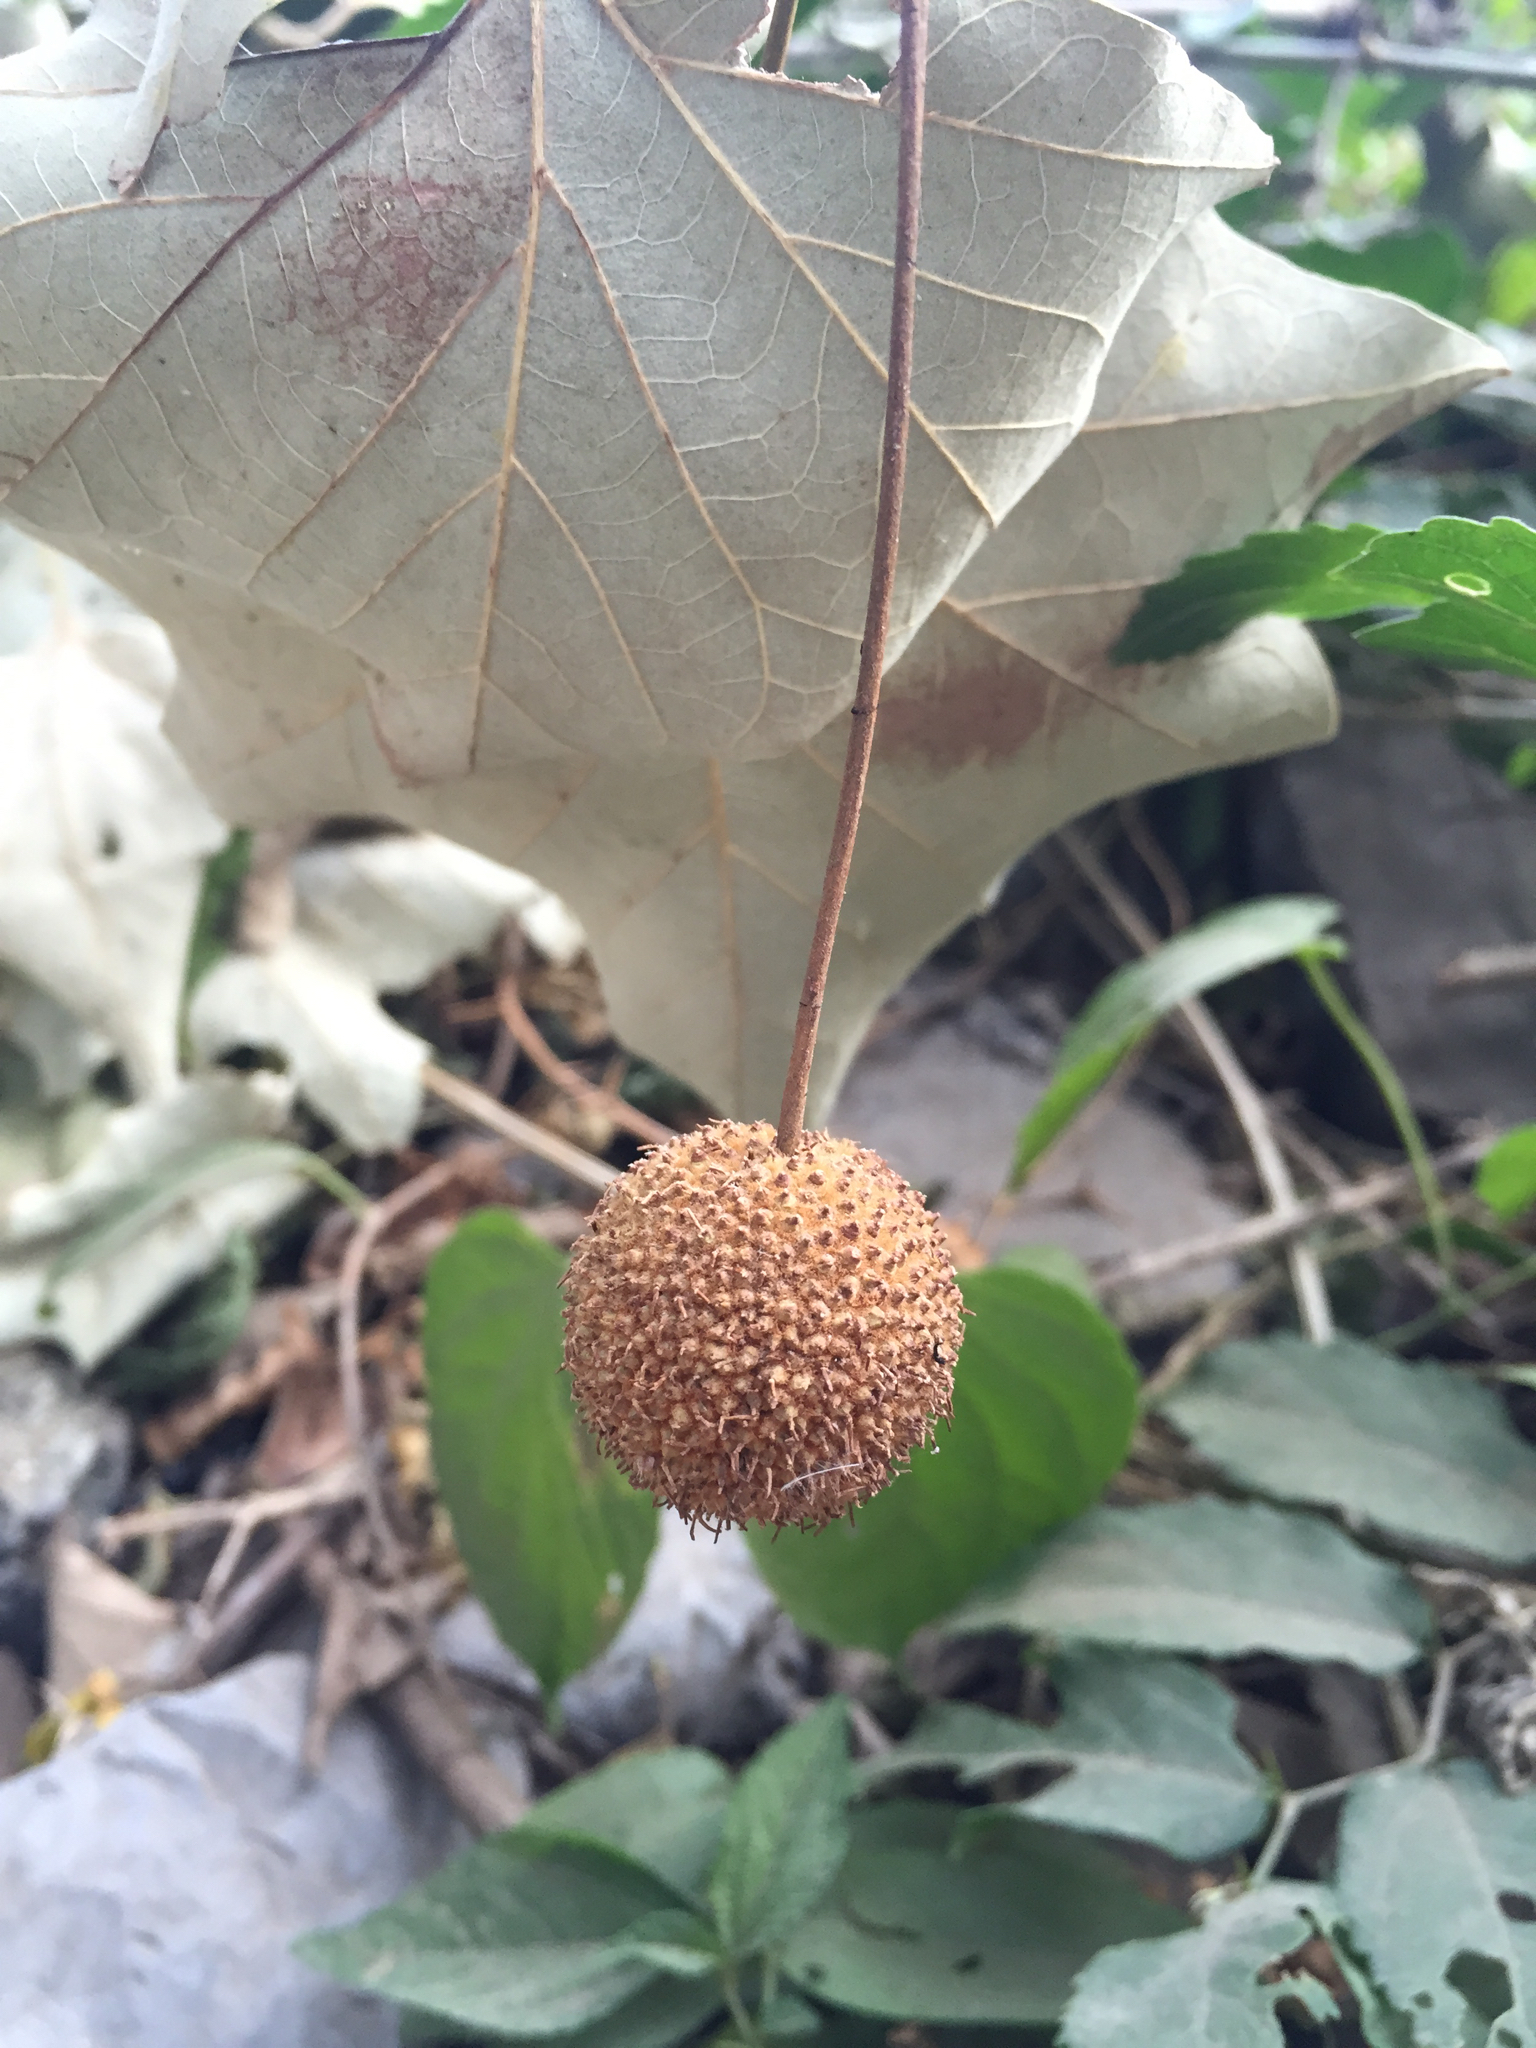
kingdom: Plantae
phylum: Tracheophyta
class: Magnoliopsida
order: Proteales
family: Platanaceae
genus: Platanus
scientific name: Platanus rzedowskii
